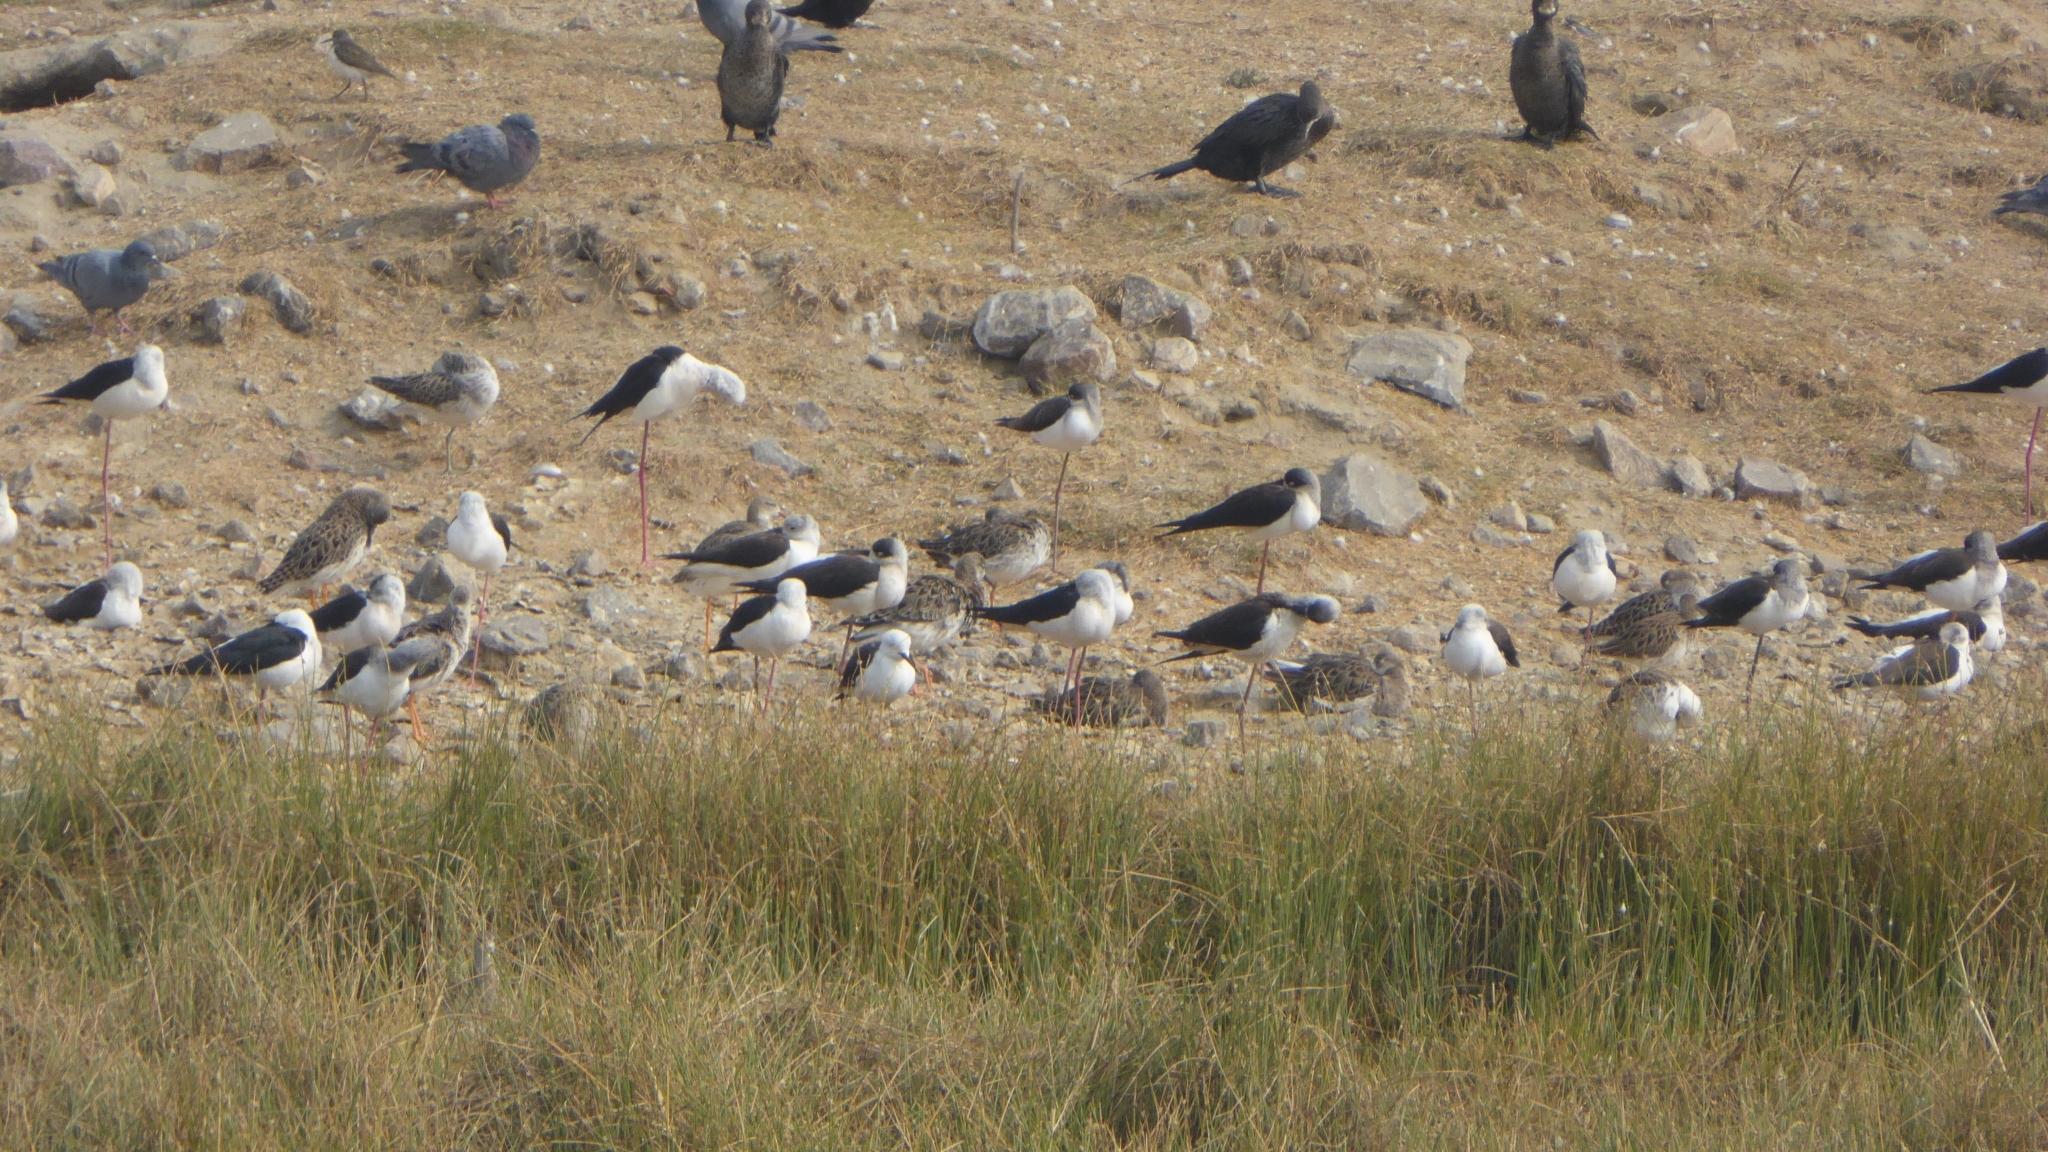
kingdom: Animalia
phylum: Chordata
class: Aves
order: Charadriiformes
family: Recurvirostridae
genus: Himantopus
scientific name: Himantopus himantopus
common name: Black-winged stilt
